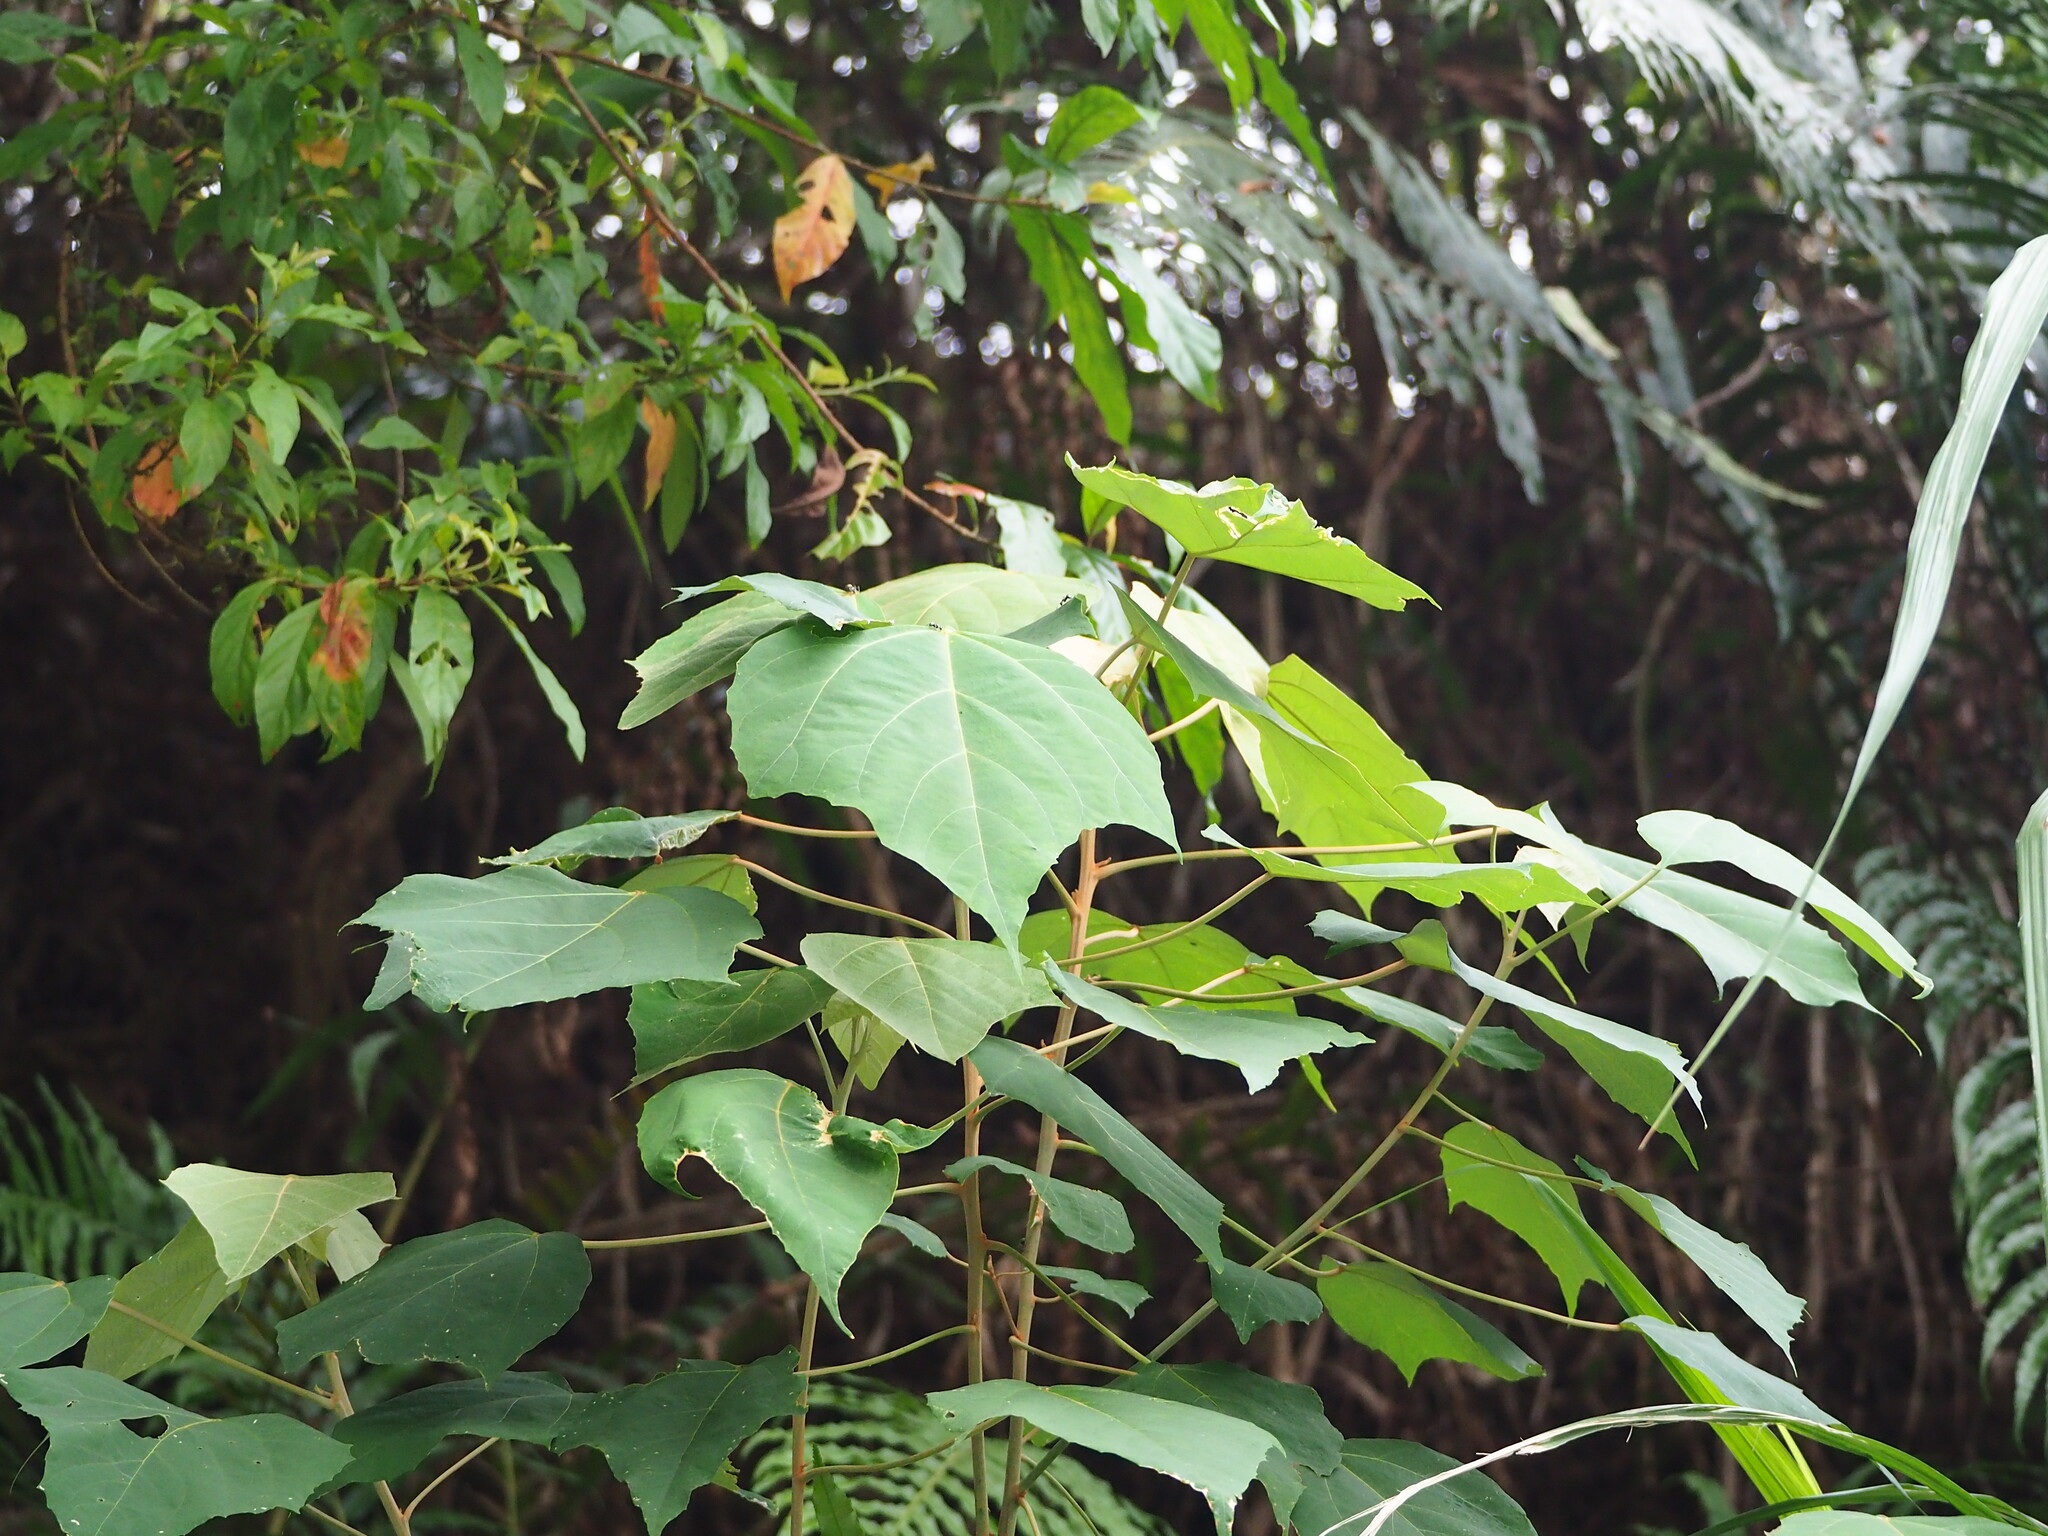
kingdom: Plantae
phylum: Tracheophyta
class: Magnoliopsida
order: Malpighiales
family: Euphorbiaceae
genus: Mallotus
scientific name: Mallotus paniculatus
